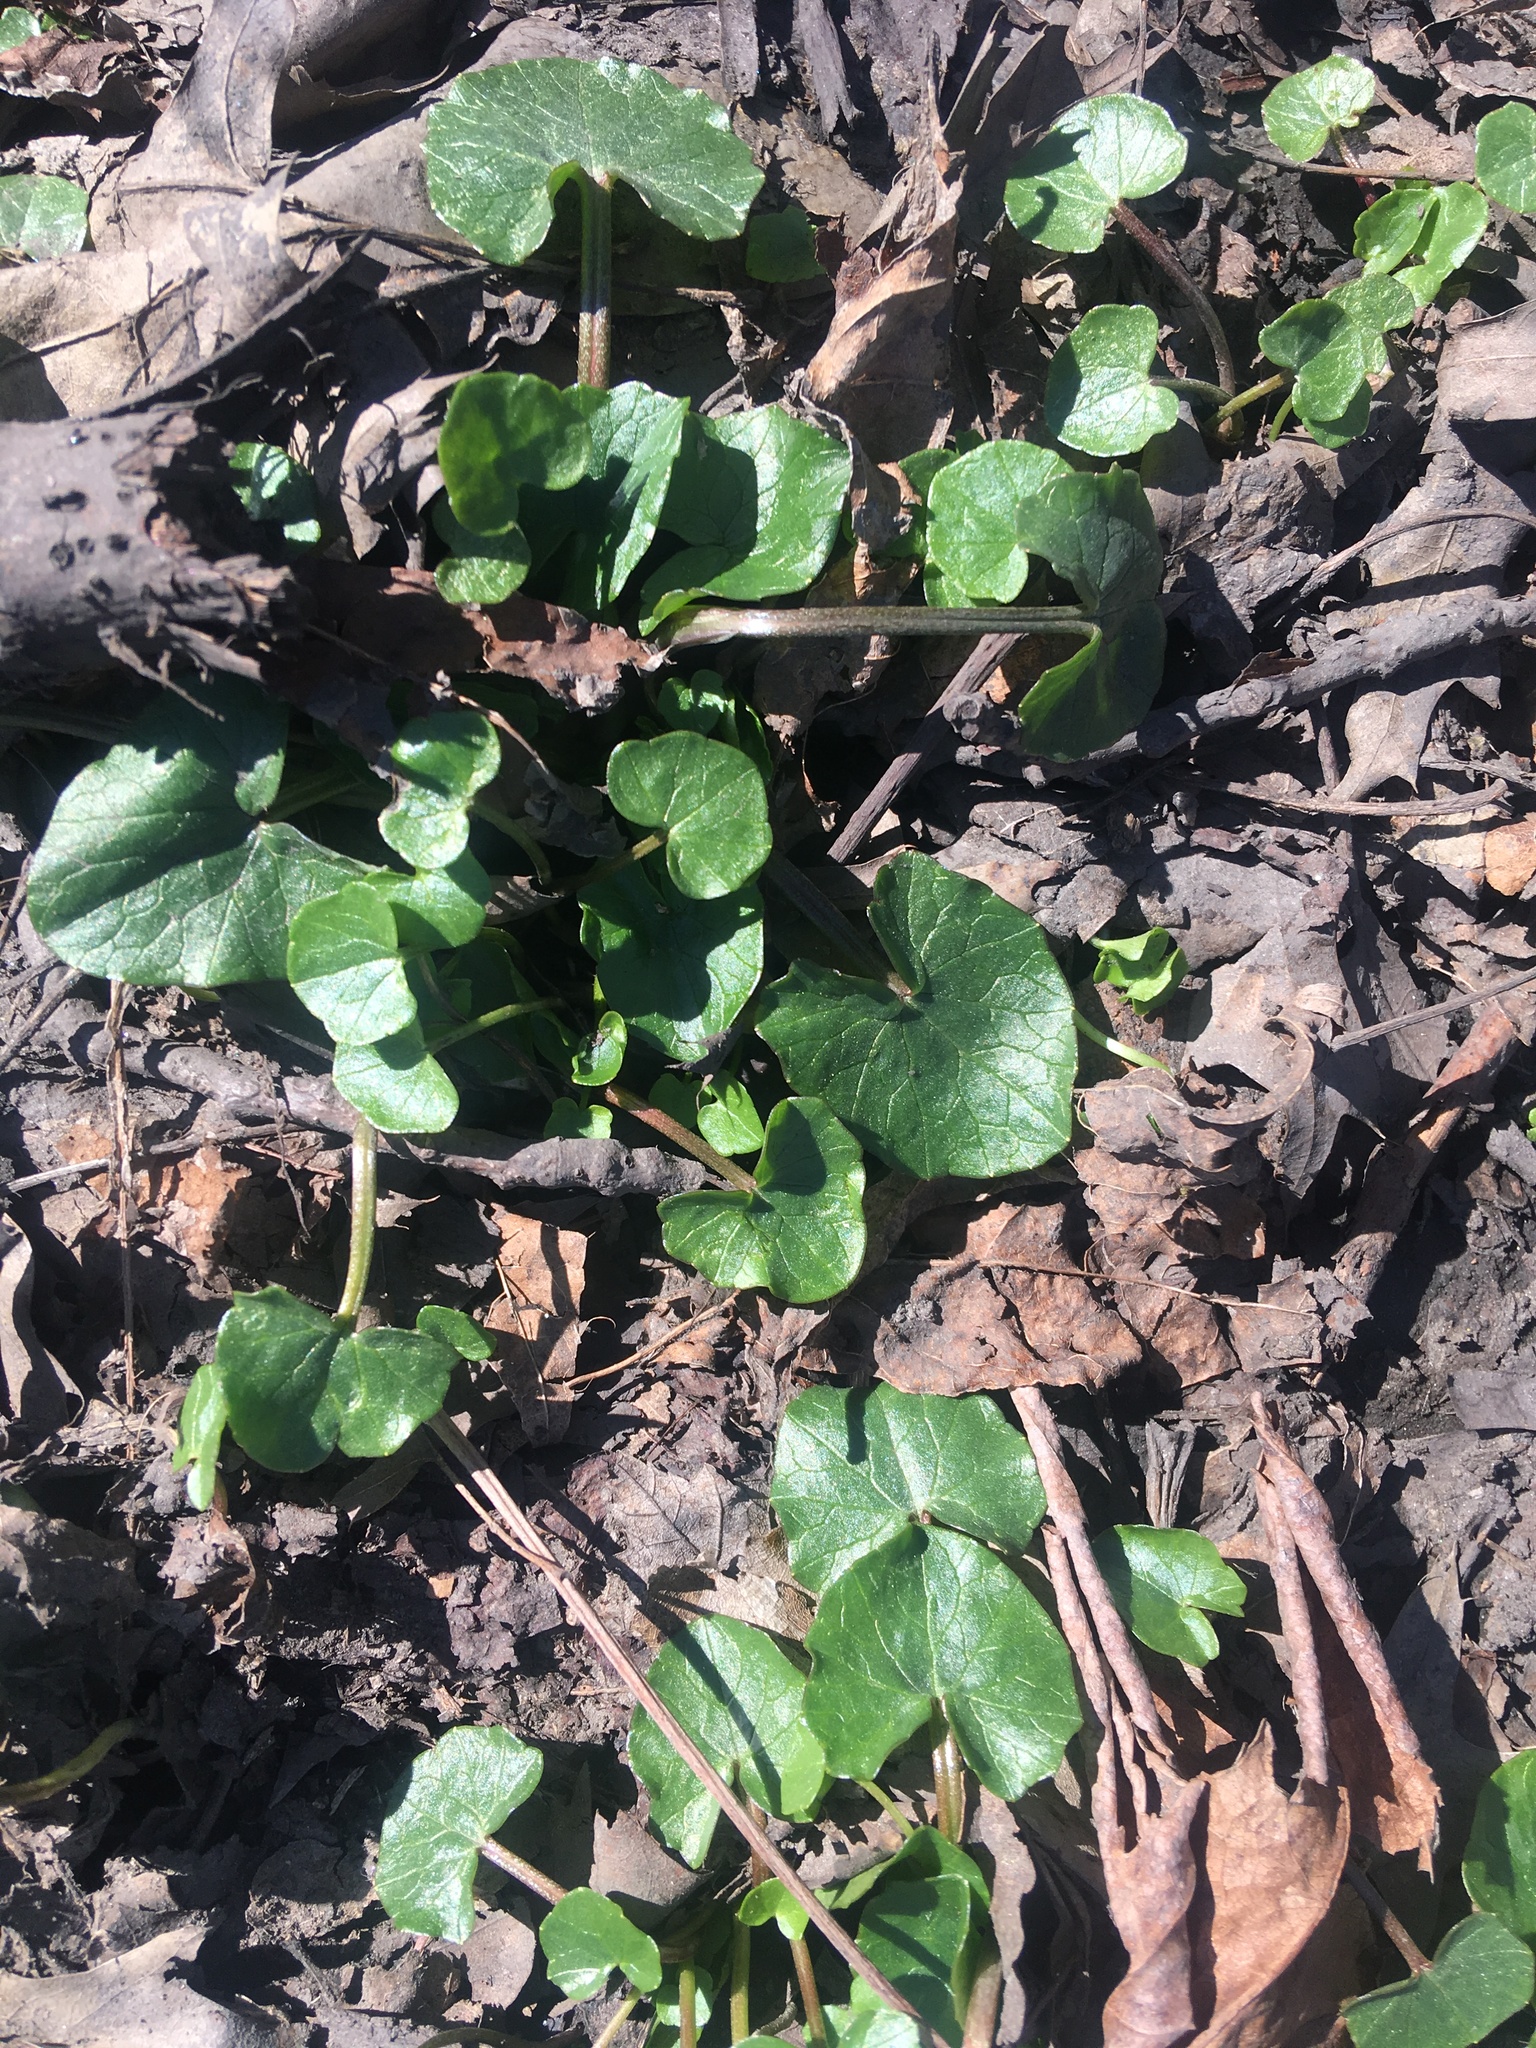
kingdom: Plantae
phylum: Tracheophyta
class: Magnoliopsida
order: Ranunculales
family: Ranunculaceae
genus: Ficaria
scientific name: Ficaria verna
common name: Lesser celandine
